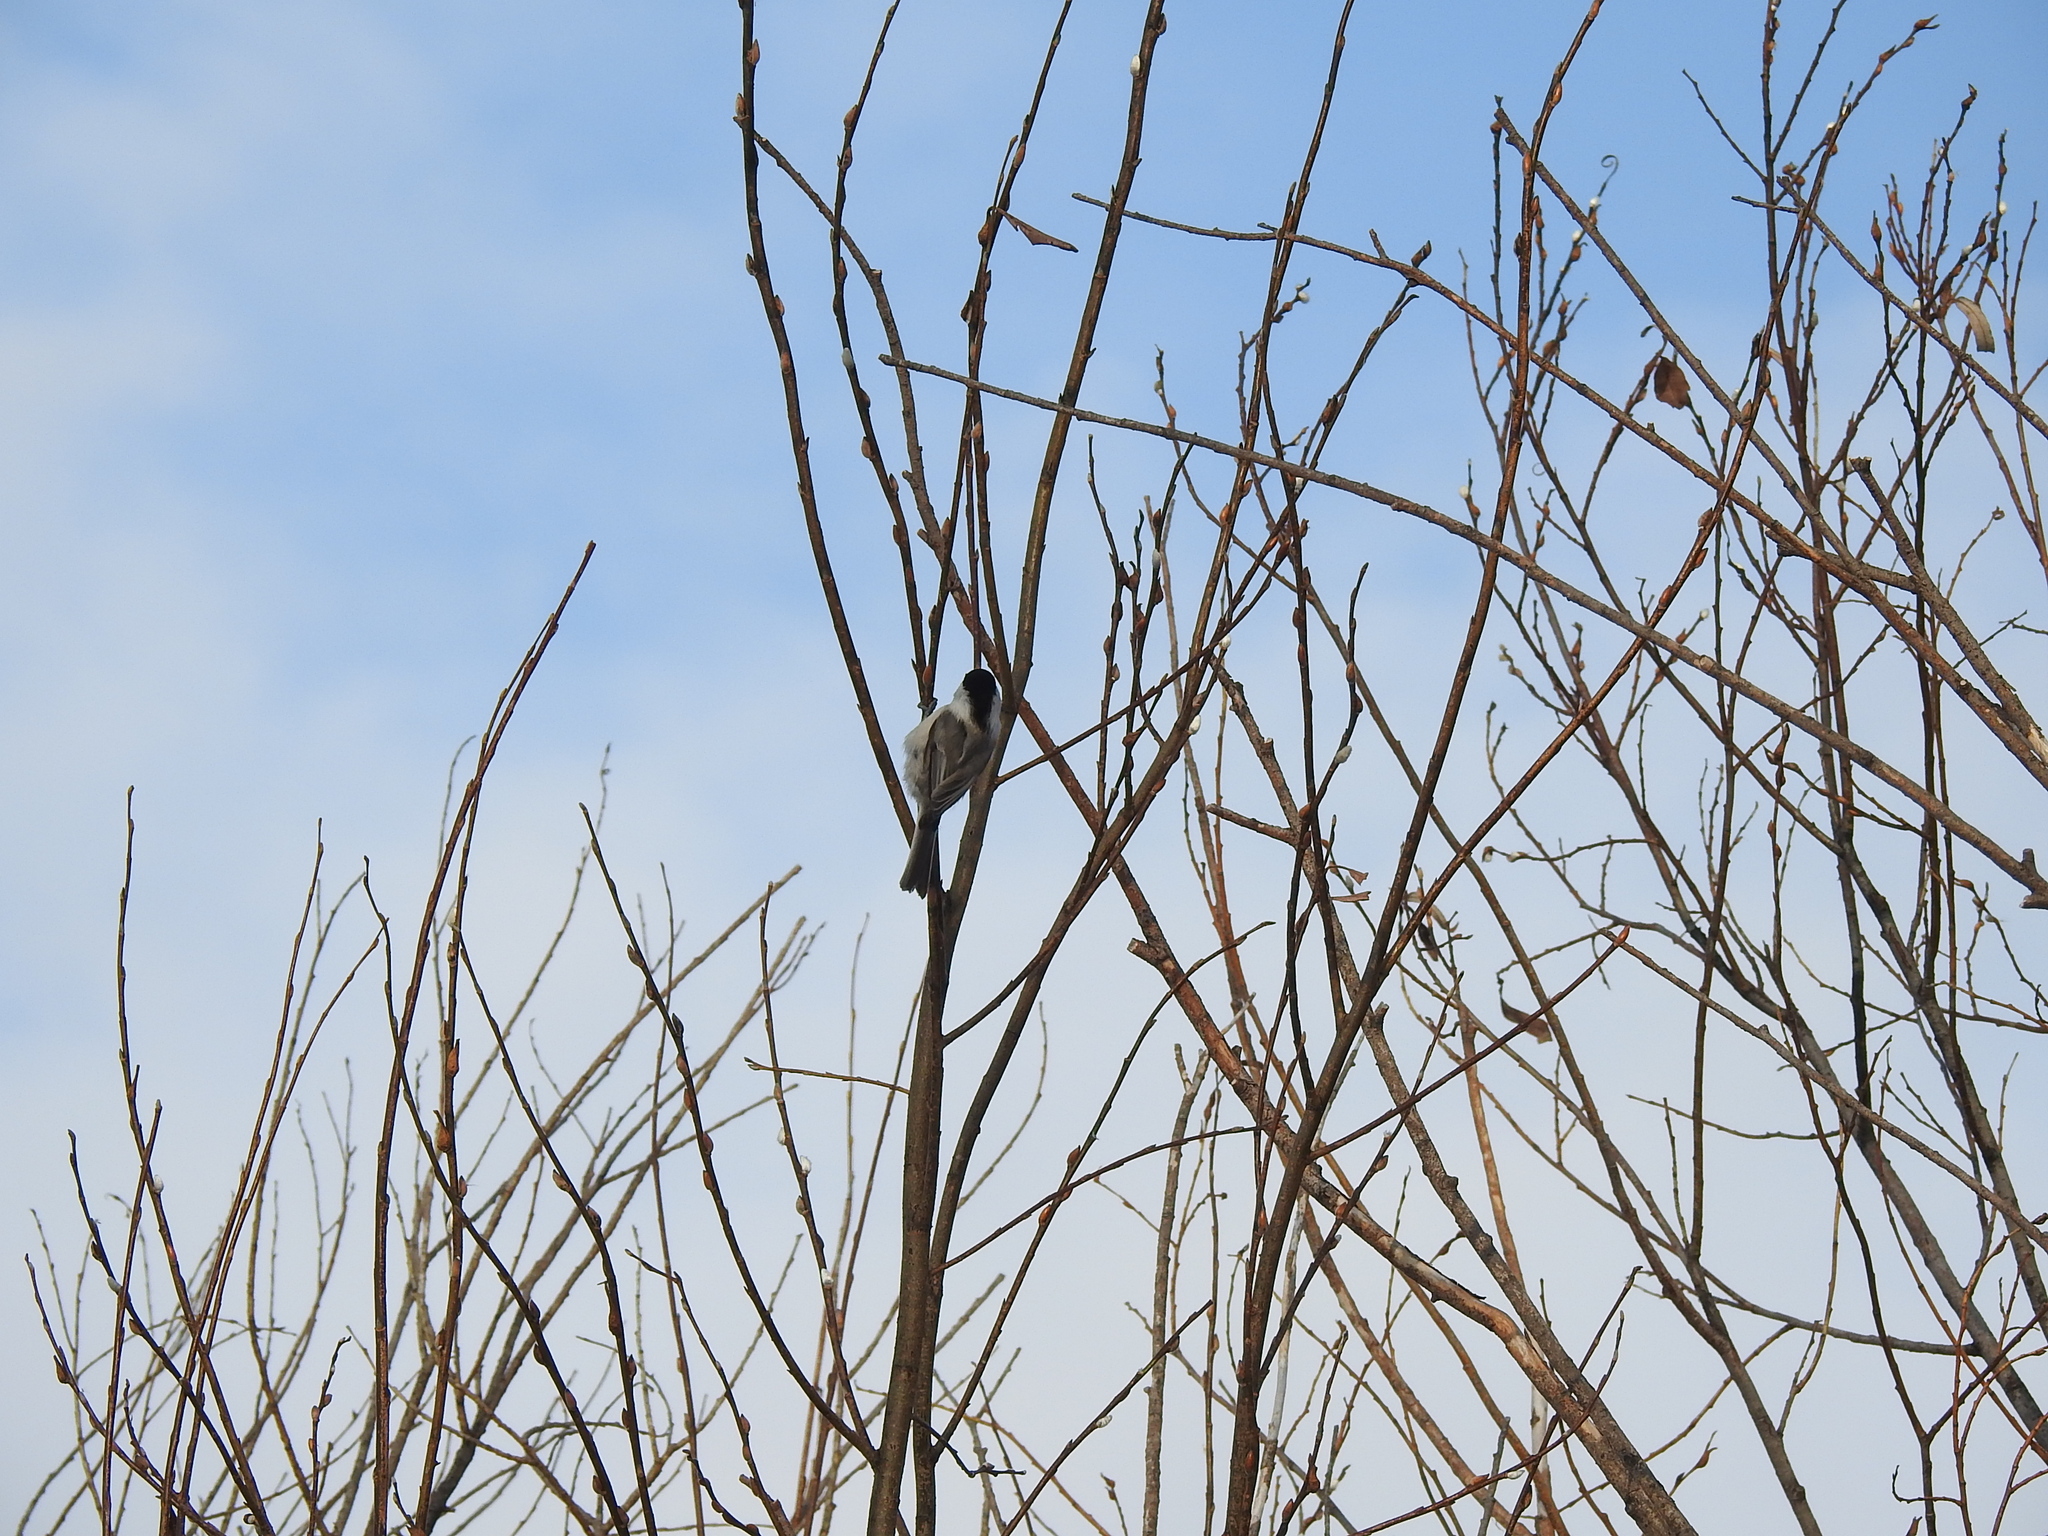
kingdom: Animalia
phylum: Chordata
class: Aves
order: Passeriformes
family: Paridae
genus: Poecile
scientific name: Poecile montanus
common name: Willow tit
